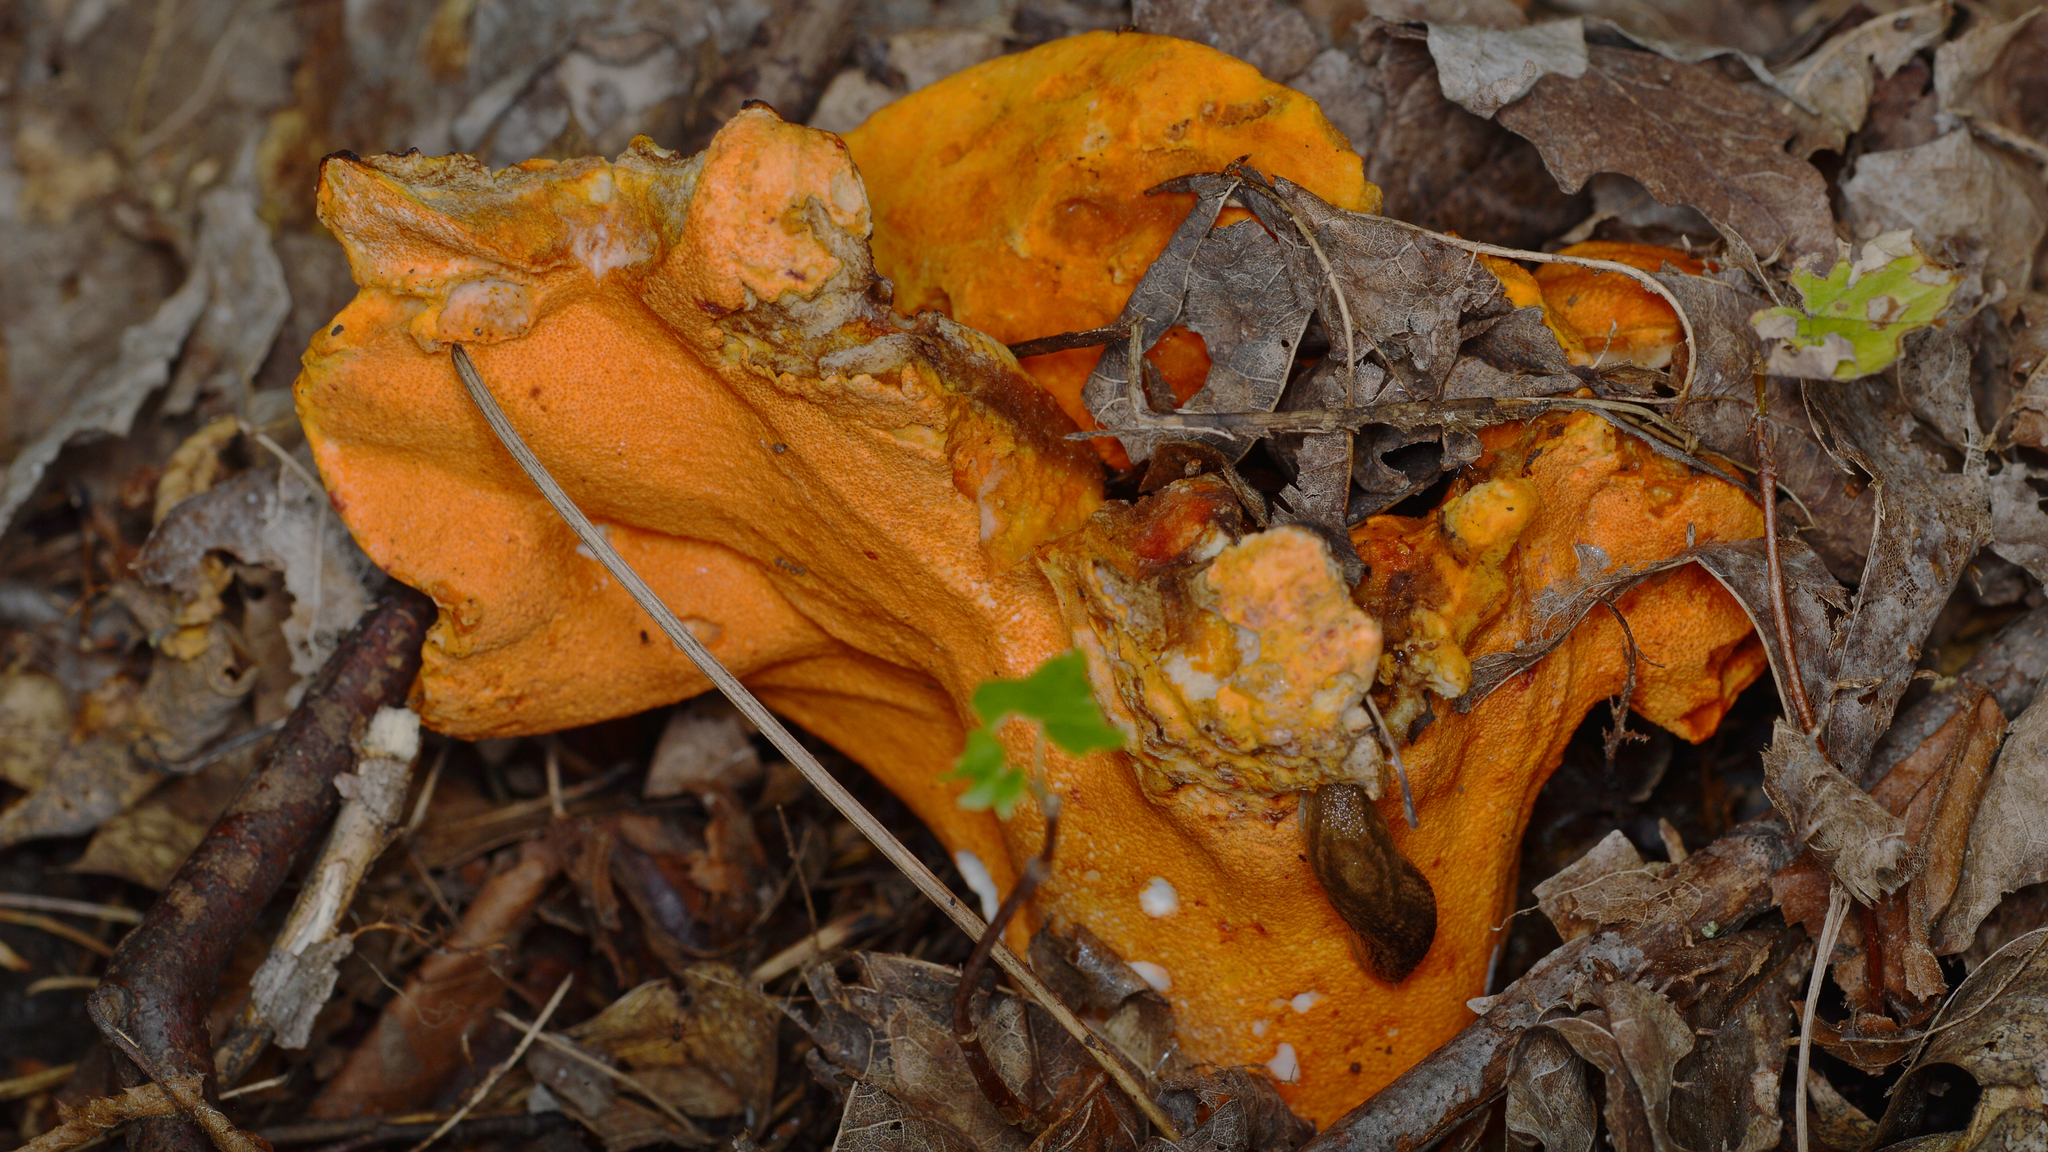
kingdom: Fungi
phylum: Ascomycota
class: Sordariomycetes
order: Hypocreales
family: Hypocreaceae
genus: Hypomyces
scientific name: Hypomyces lactifluorum
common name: Lobster mushroom
